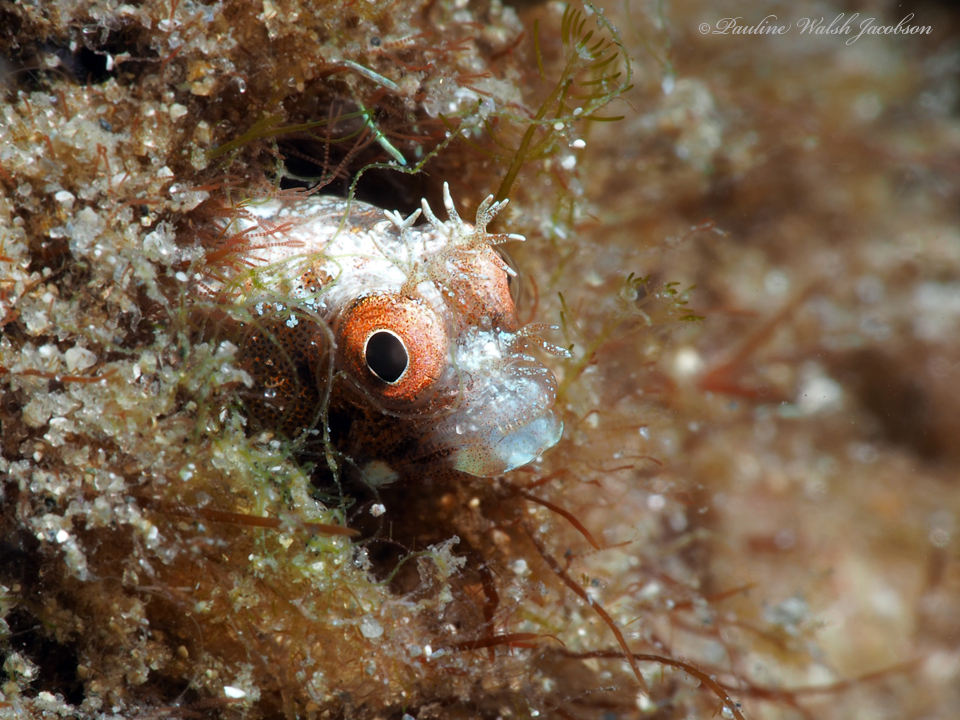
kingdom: Animalia
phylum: Chordata
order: Perciformes
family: Chaenopsidae
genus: Acanthemblemaria
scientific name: Acanthemblemaria aspera
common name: Roughhead blenny
